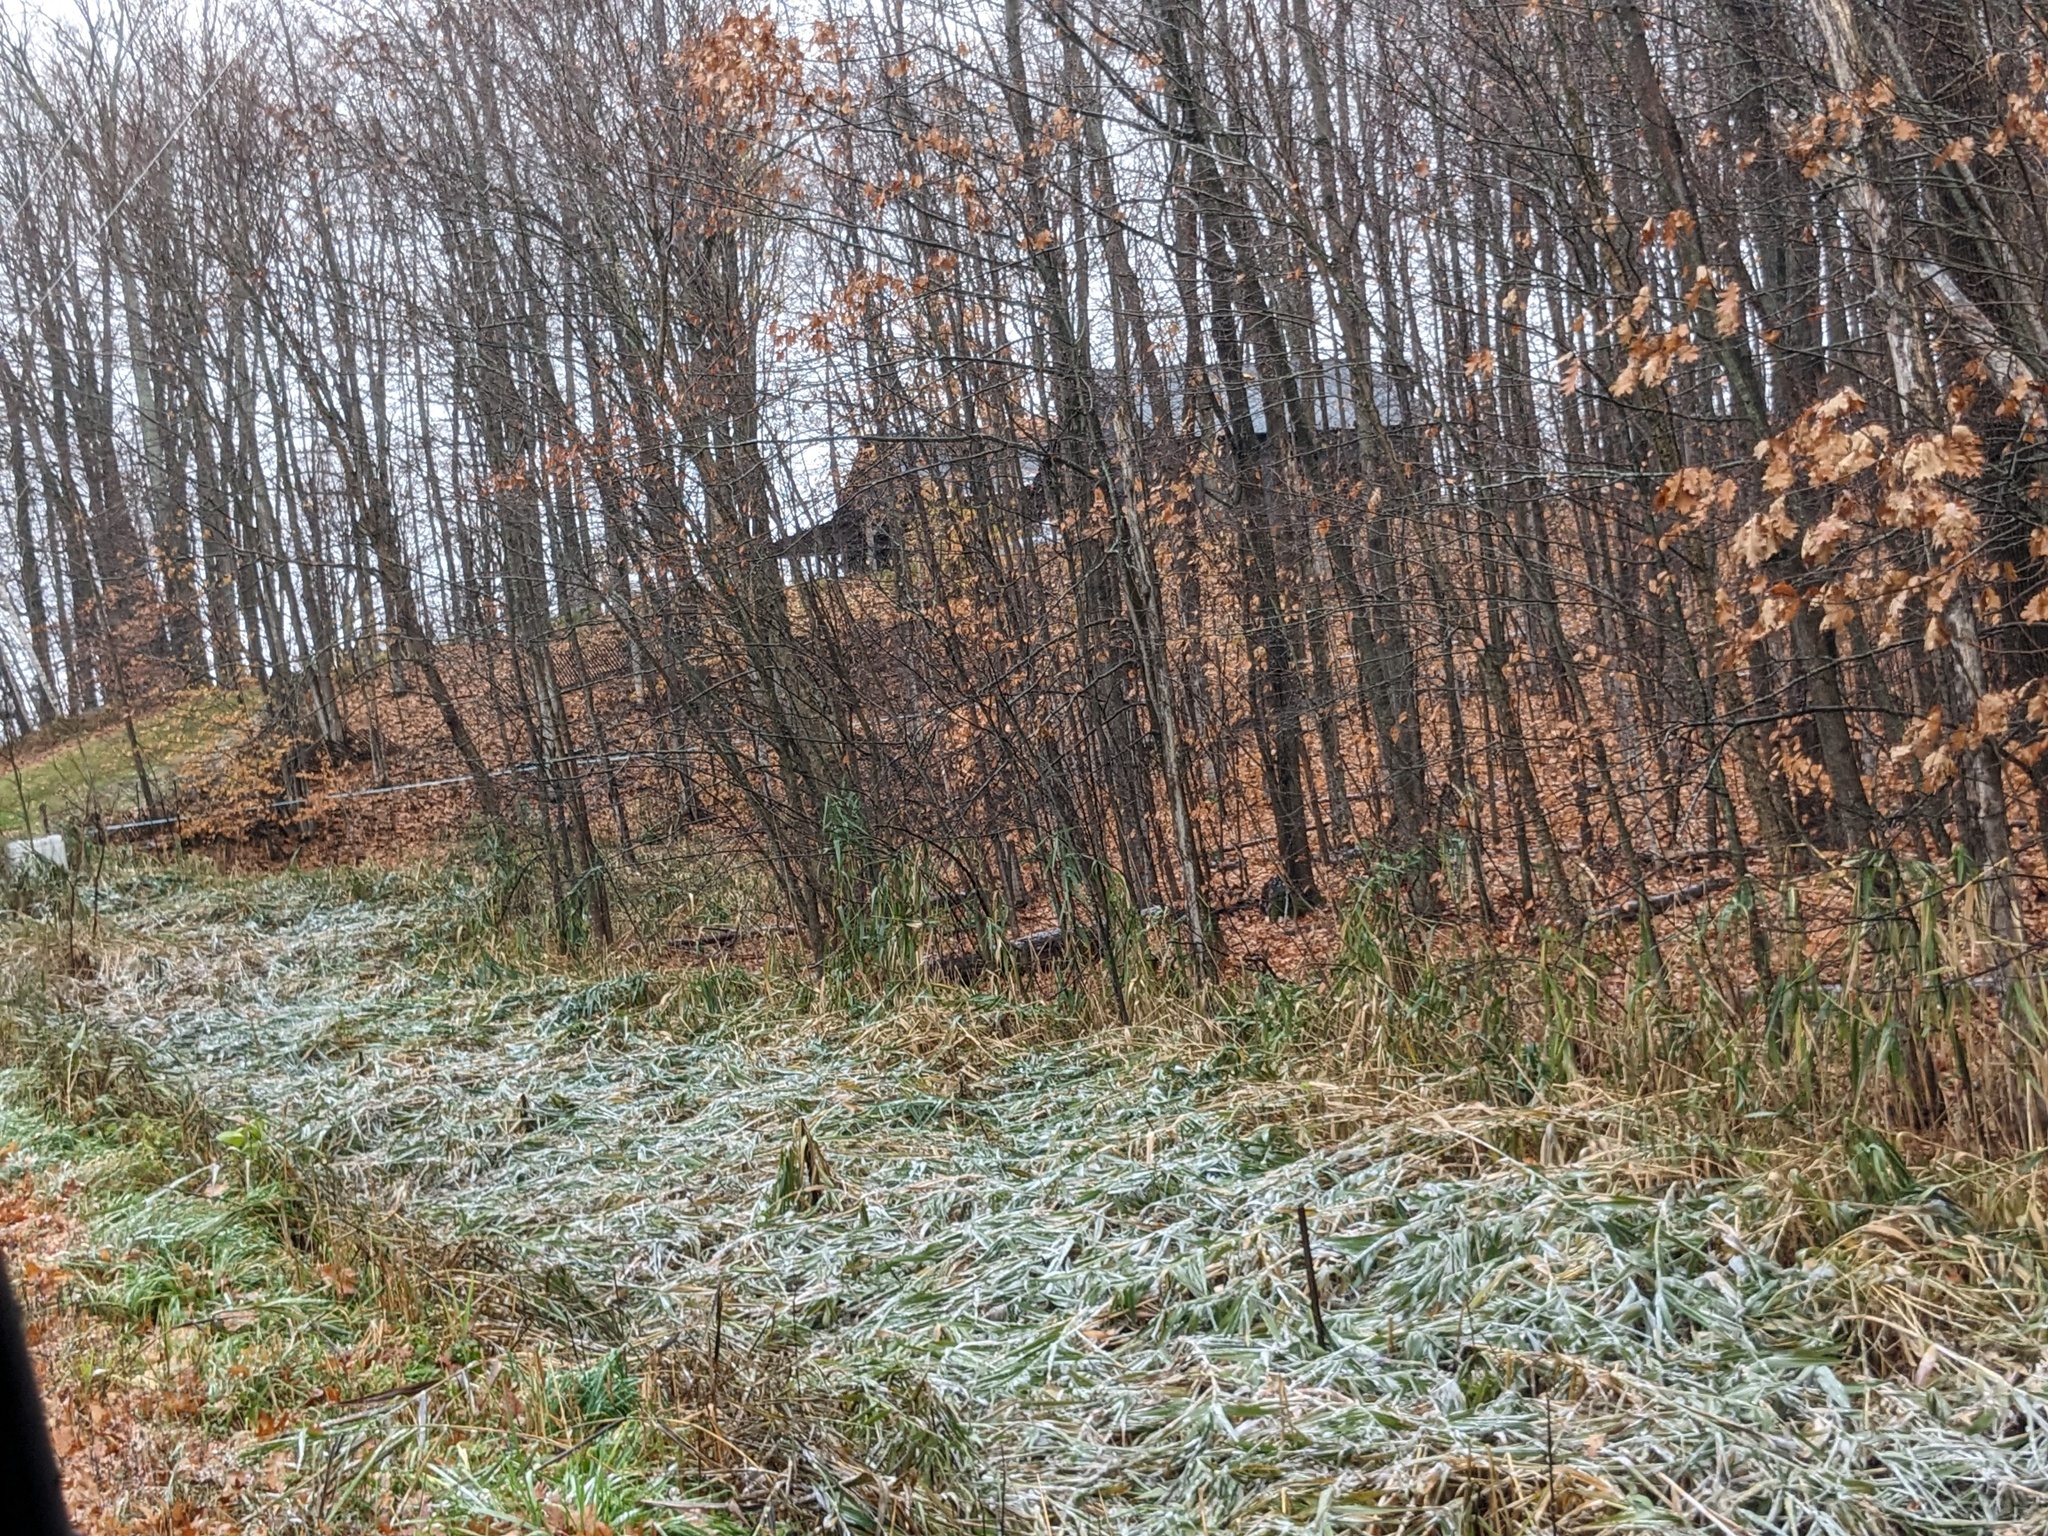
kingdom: Plantae
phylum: Tracheophyta
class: Liliopsida
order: Poales
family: Poaceae
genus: Phragmites
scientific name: Phragmites australis
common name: Common reed
